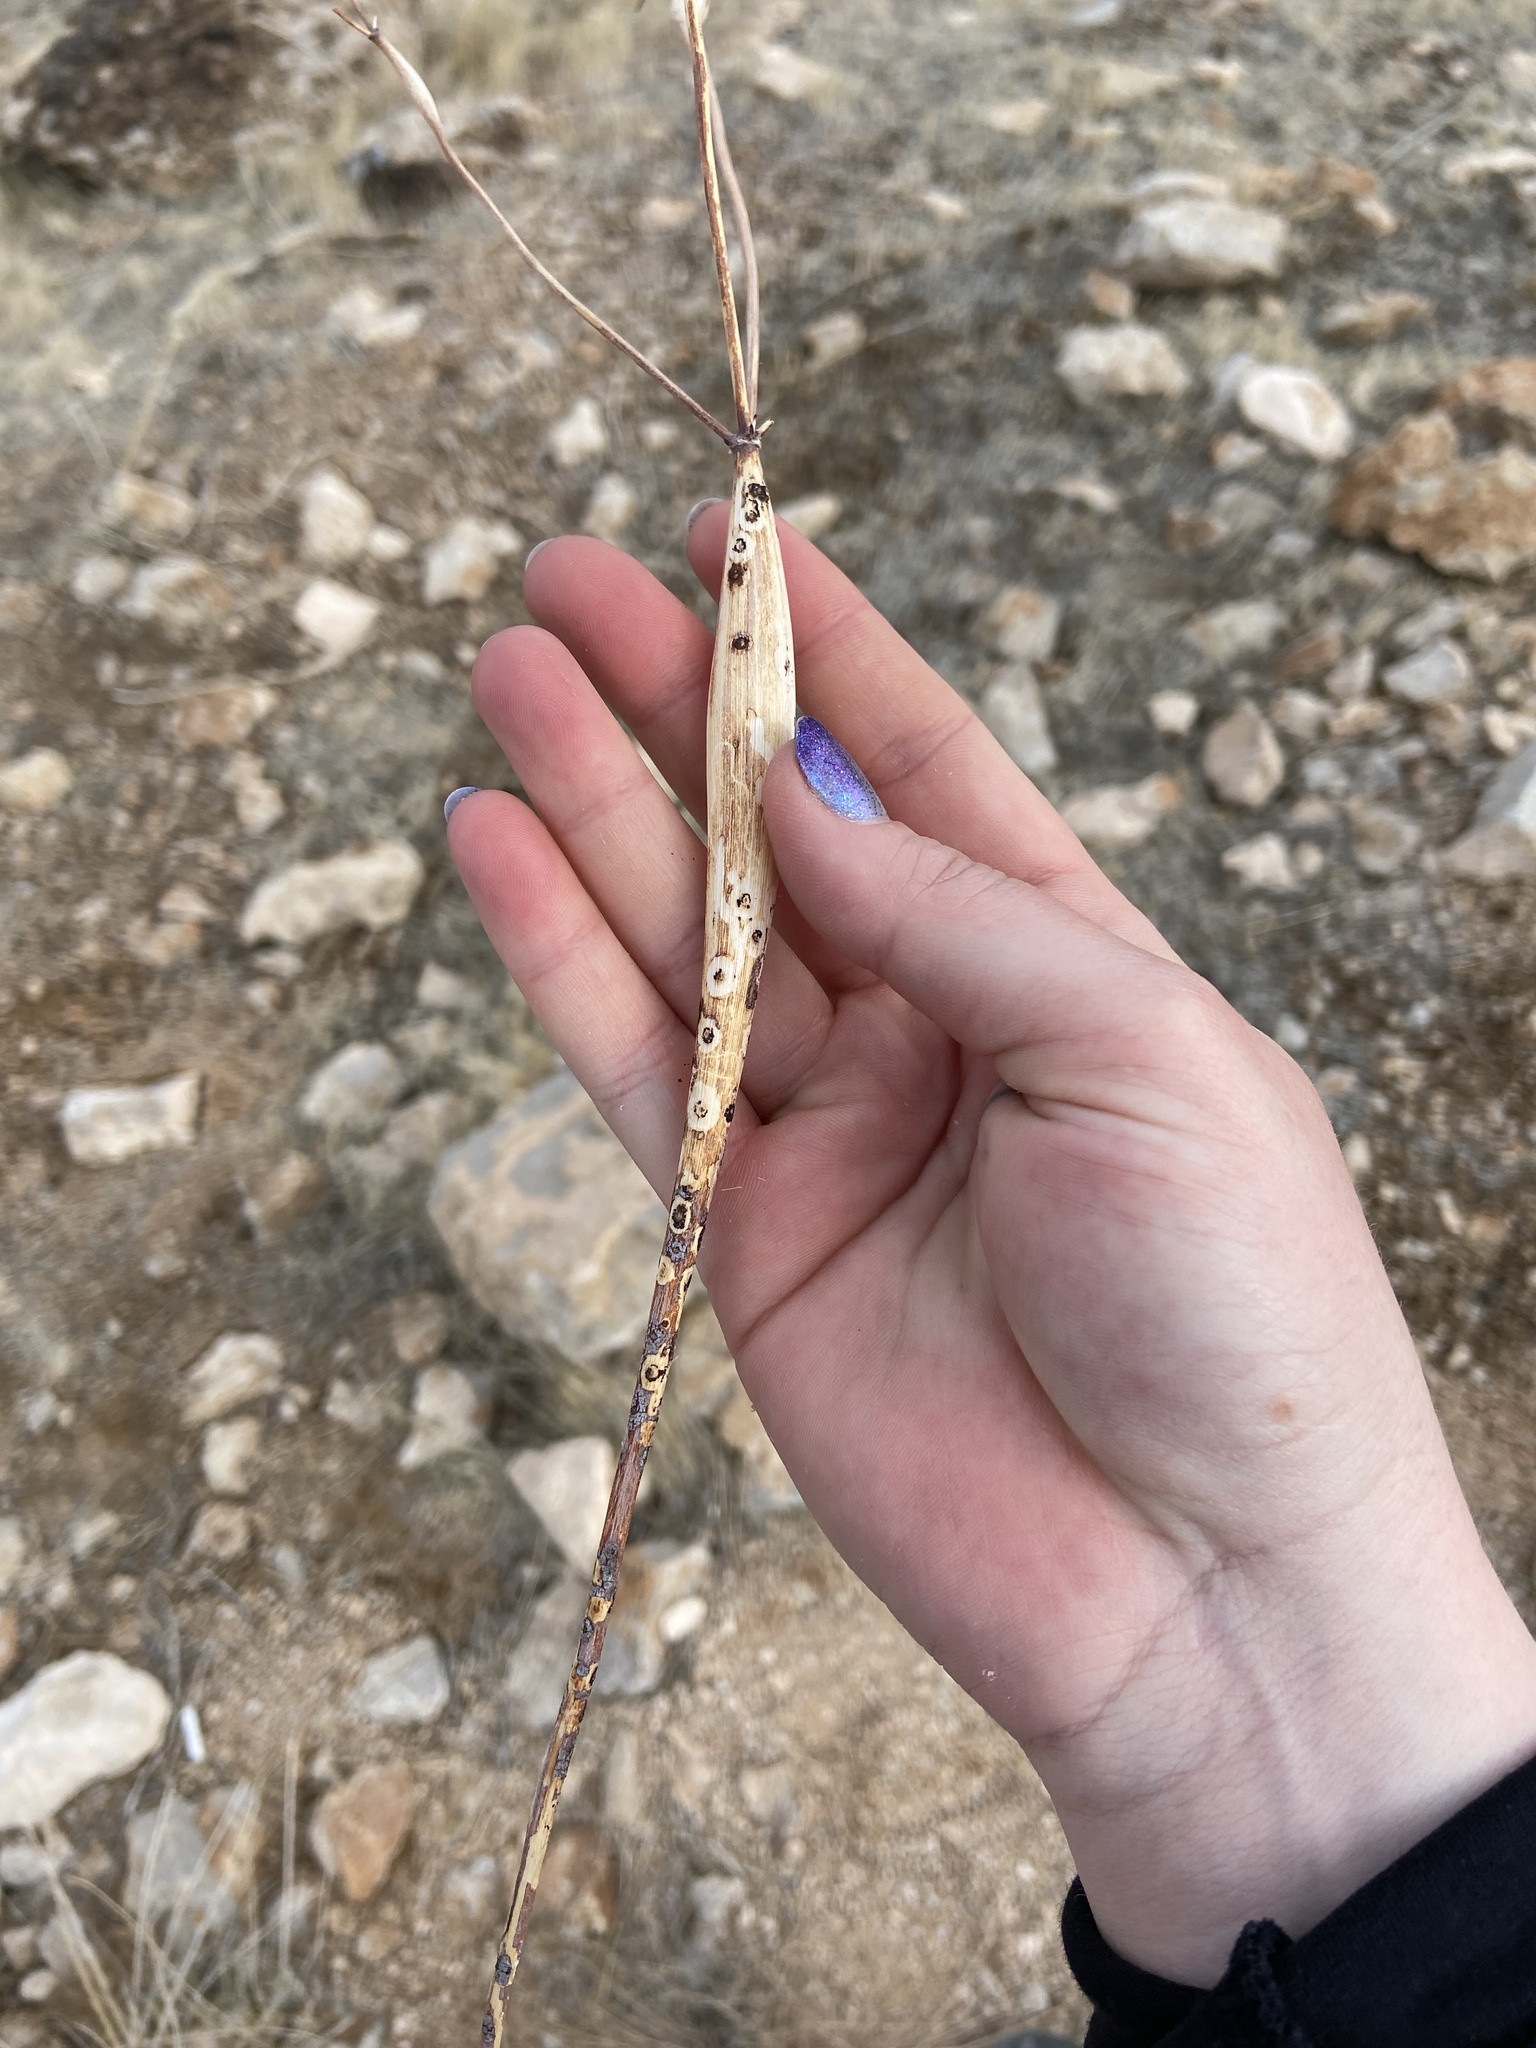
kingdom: Plantae
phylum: Tracheophyta
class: Magnoliopsida
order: Caryophyllales
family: Polygonaceae
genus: Eriogonum
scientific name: Eriogonum inflatum
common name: Desert trumpet
